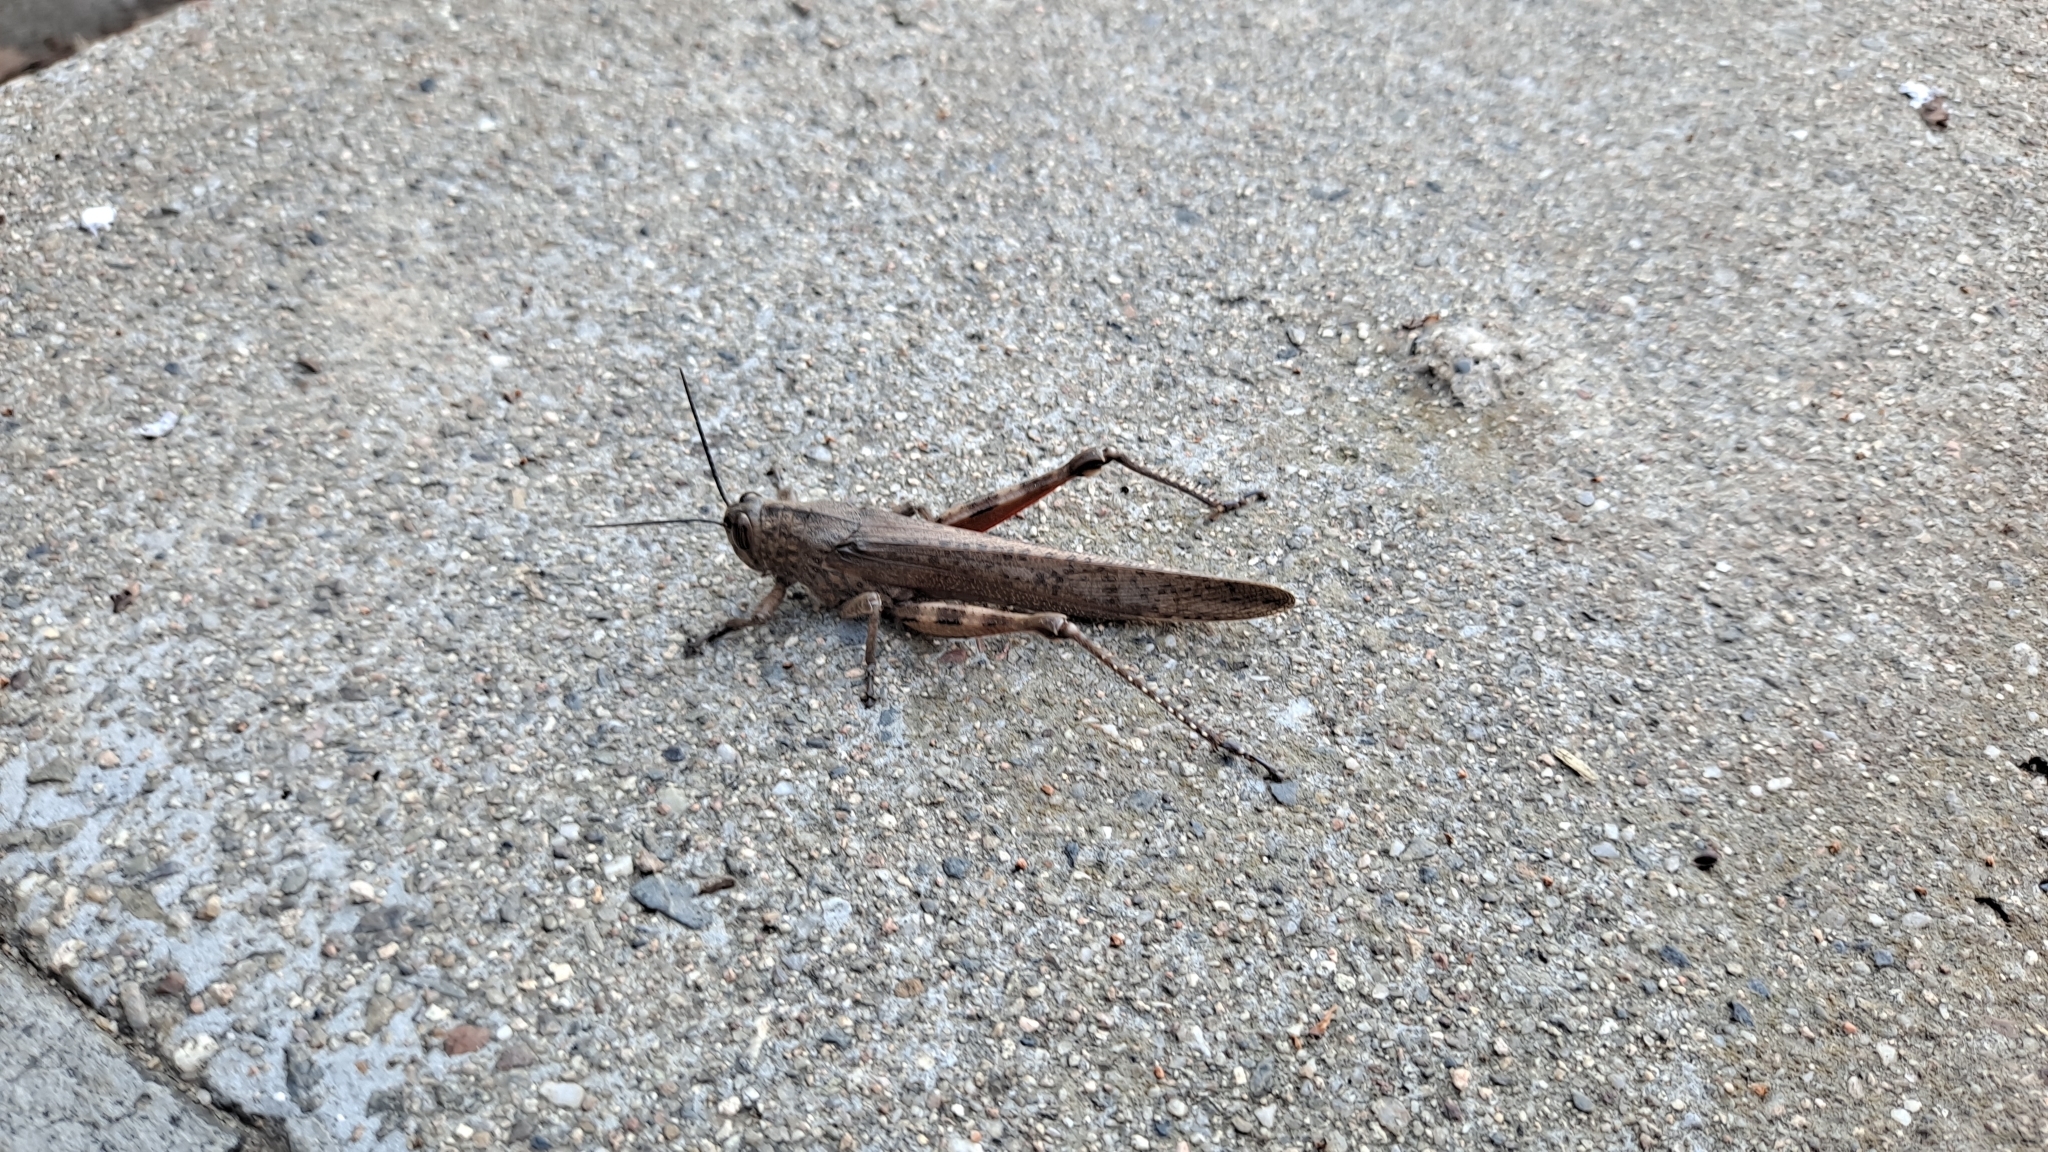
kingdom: Animalia
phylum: Arthropoda
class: Insecta
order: Orthoptera
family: Acrididae
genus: Anacridium
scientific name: Anacridium aegyptium
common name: Egyptian grasshopper
